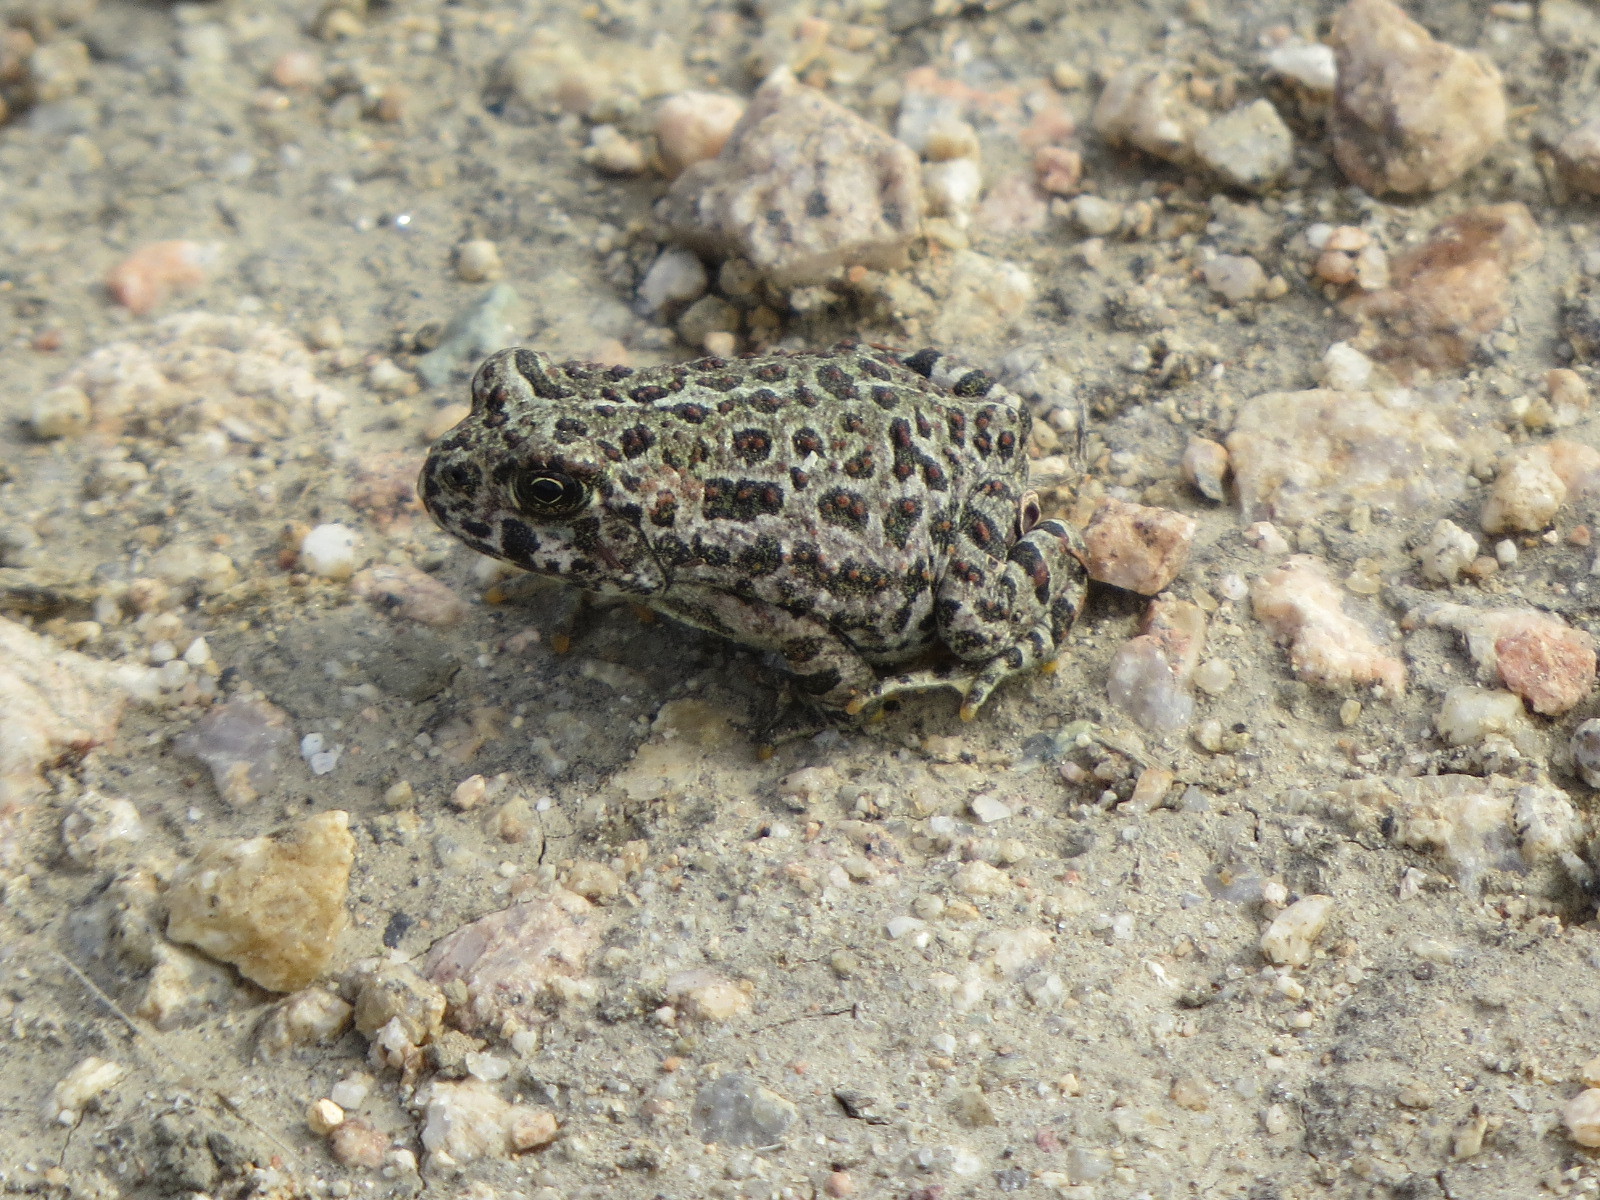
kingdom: Animalia
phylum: Chordata
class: Amphibia
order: Anura
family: Bufonidae
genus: Anaxyrus
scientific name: Anaxyrus boreas
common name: Western toad
